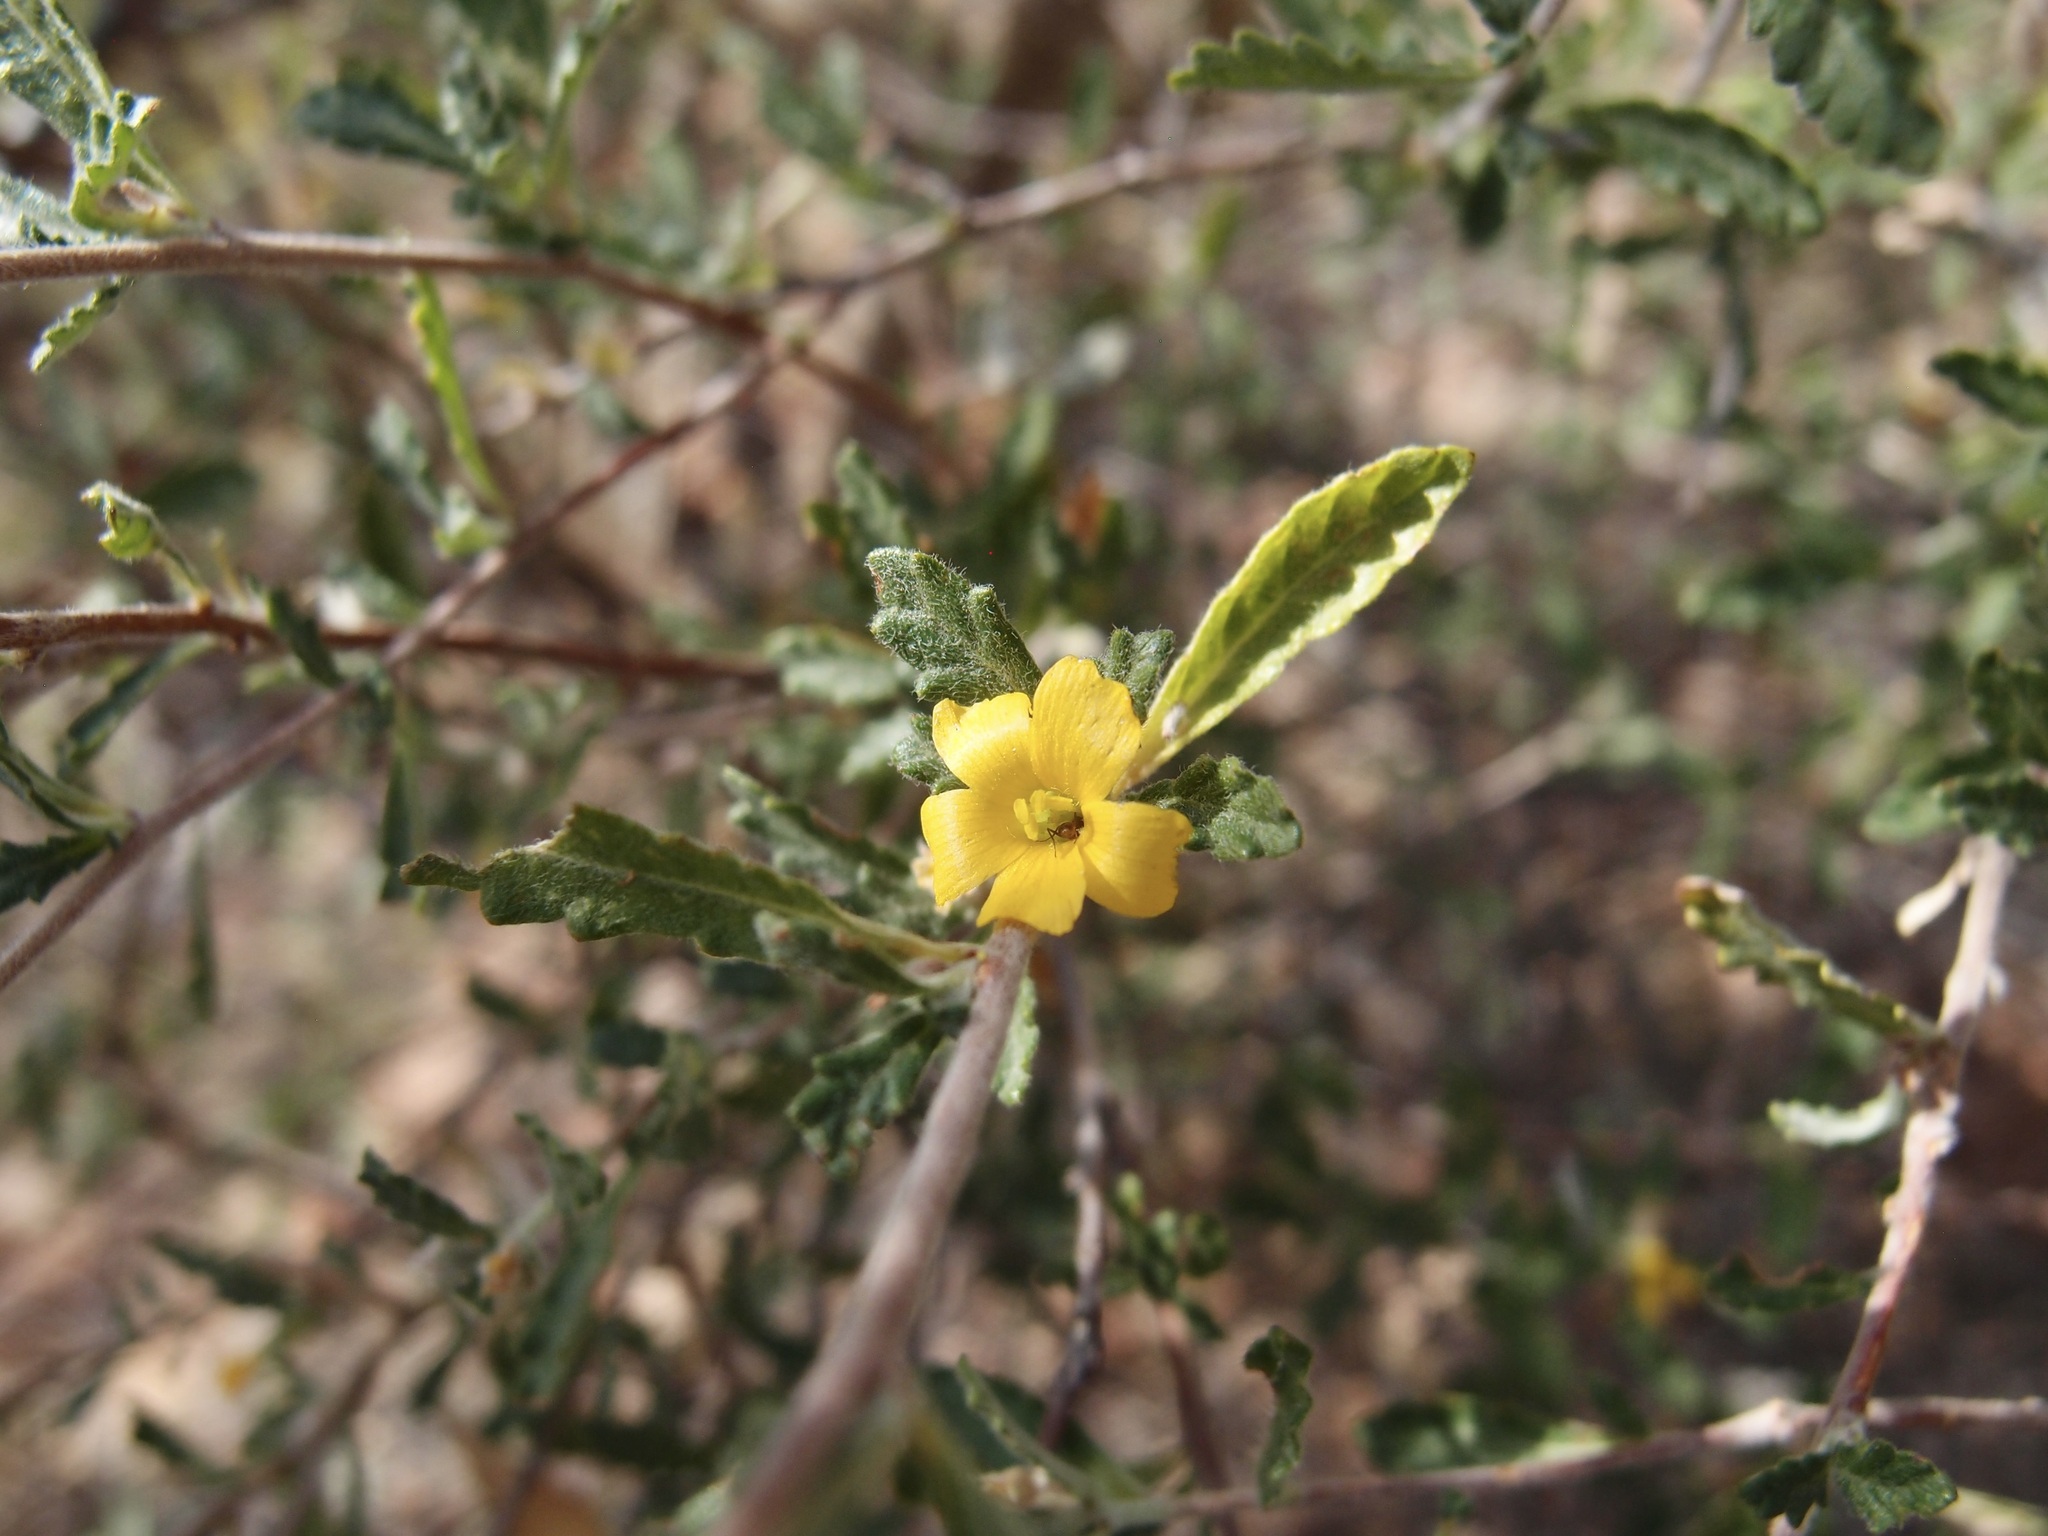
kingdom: Plantae
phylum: Tracheophyta
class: Magnoliopsida
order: Malpighiales
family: Turneraceae
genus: Turnera
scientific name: Turnera diffusa
